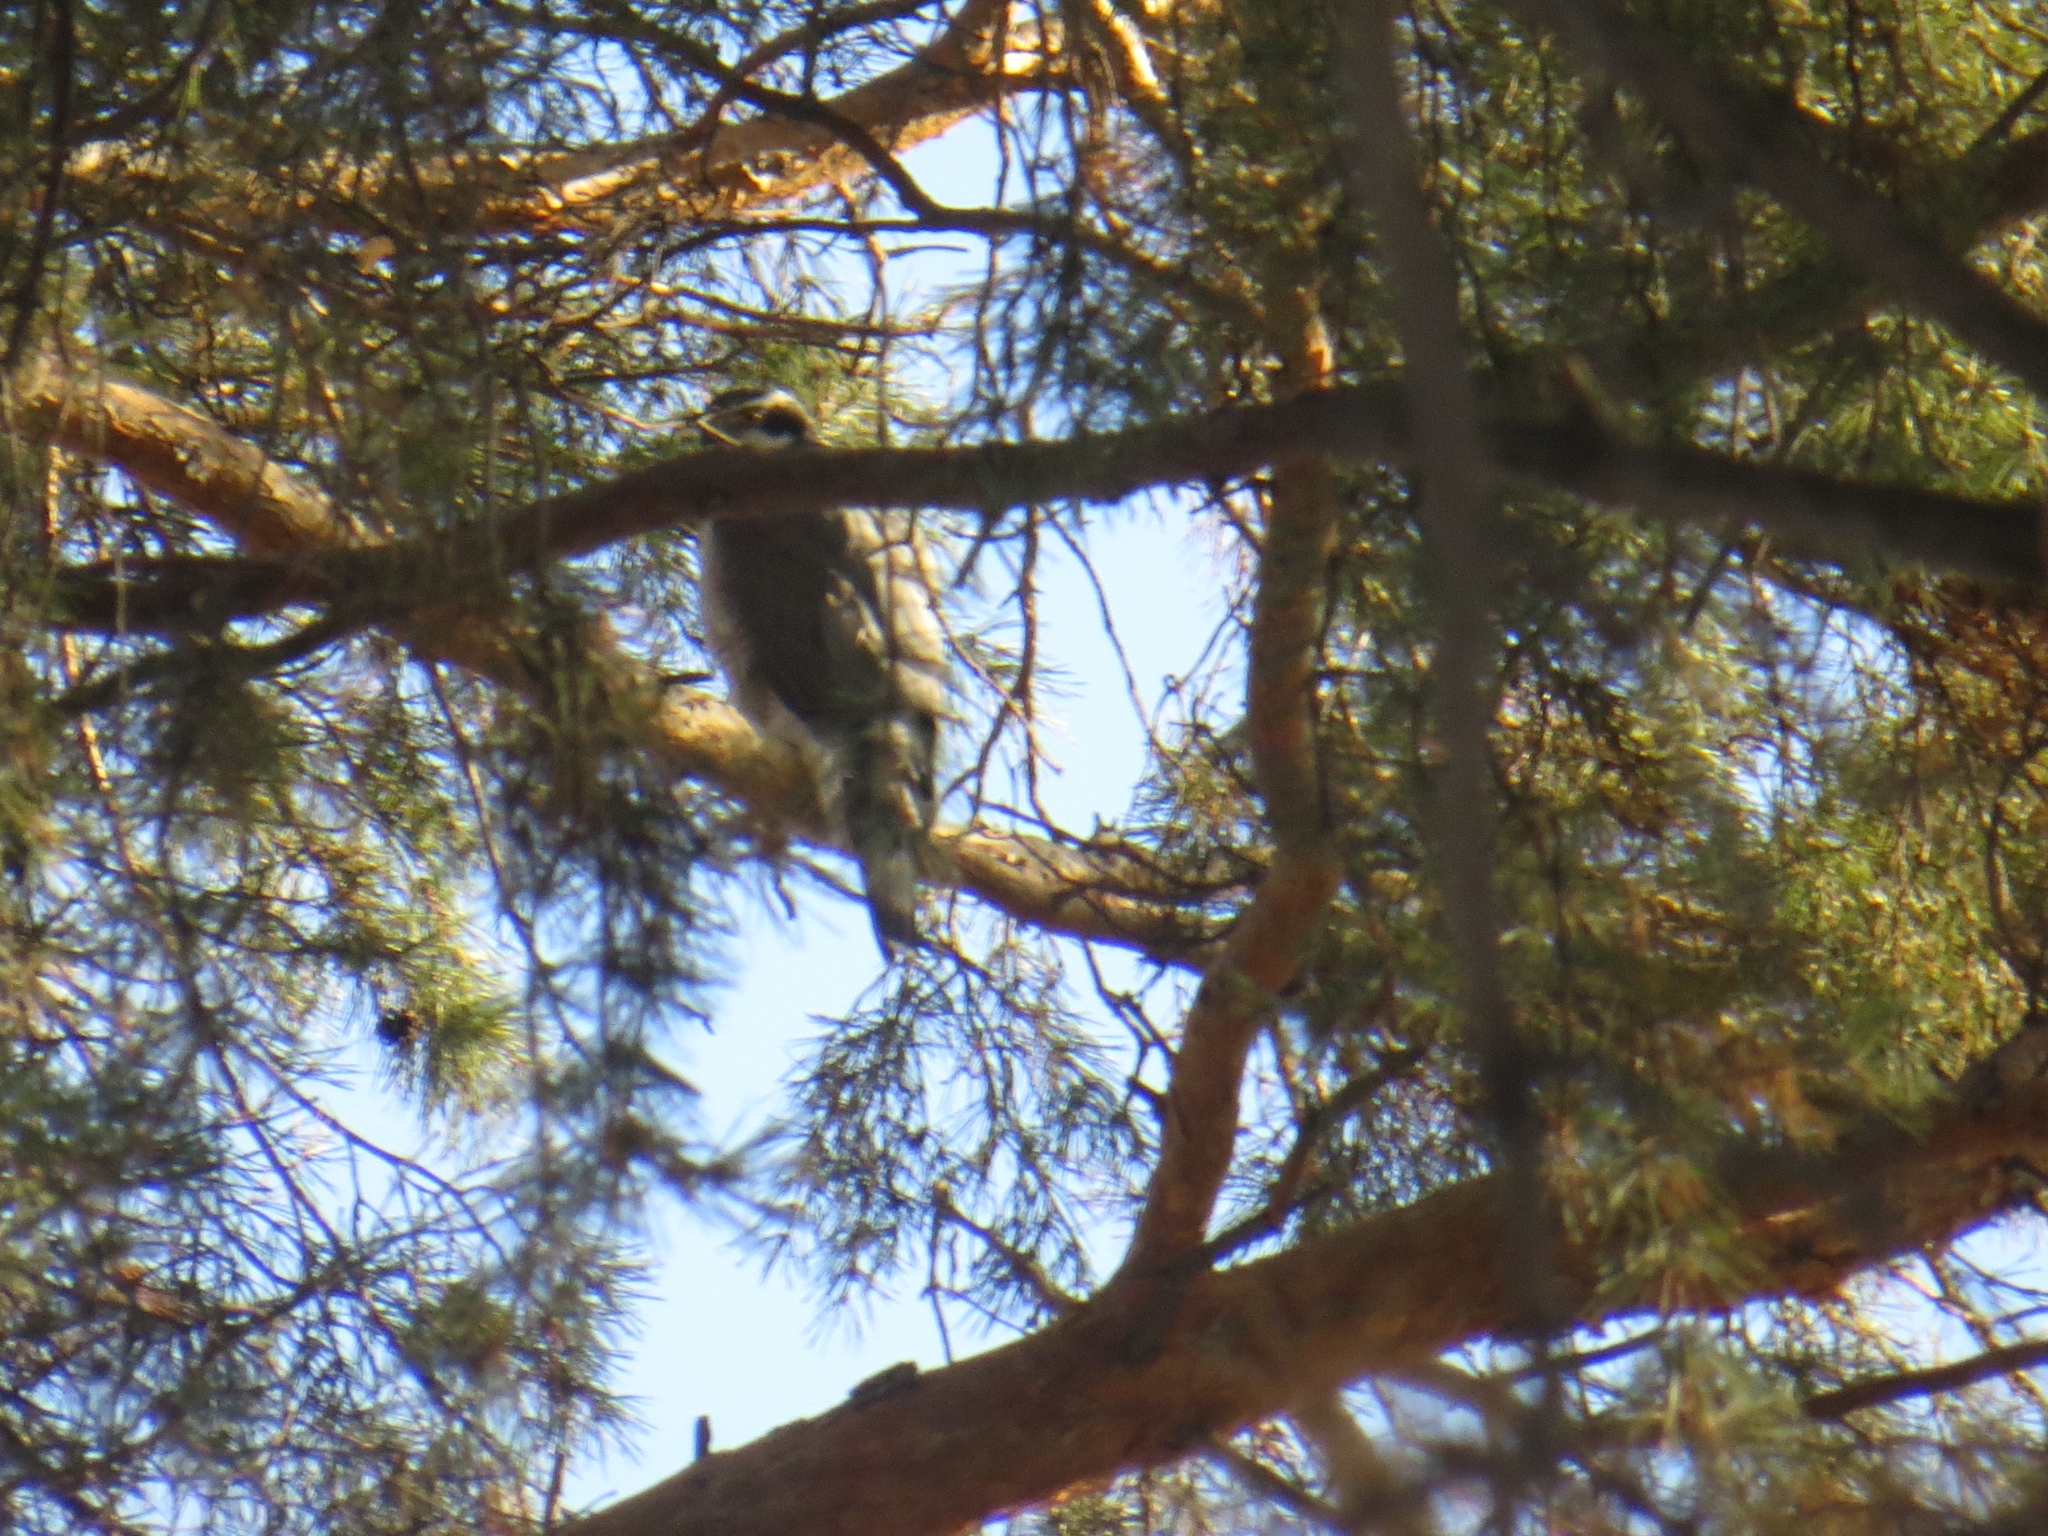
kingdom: Animalia
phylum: Chordata
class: Aves
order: Accipitriformes
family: Accipitridae
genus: Accipiter
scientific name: Accipiter gentilis
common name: Northern goshawk
